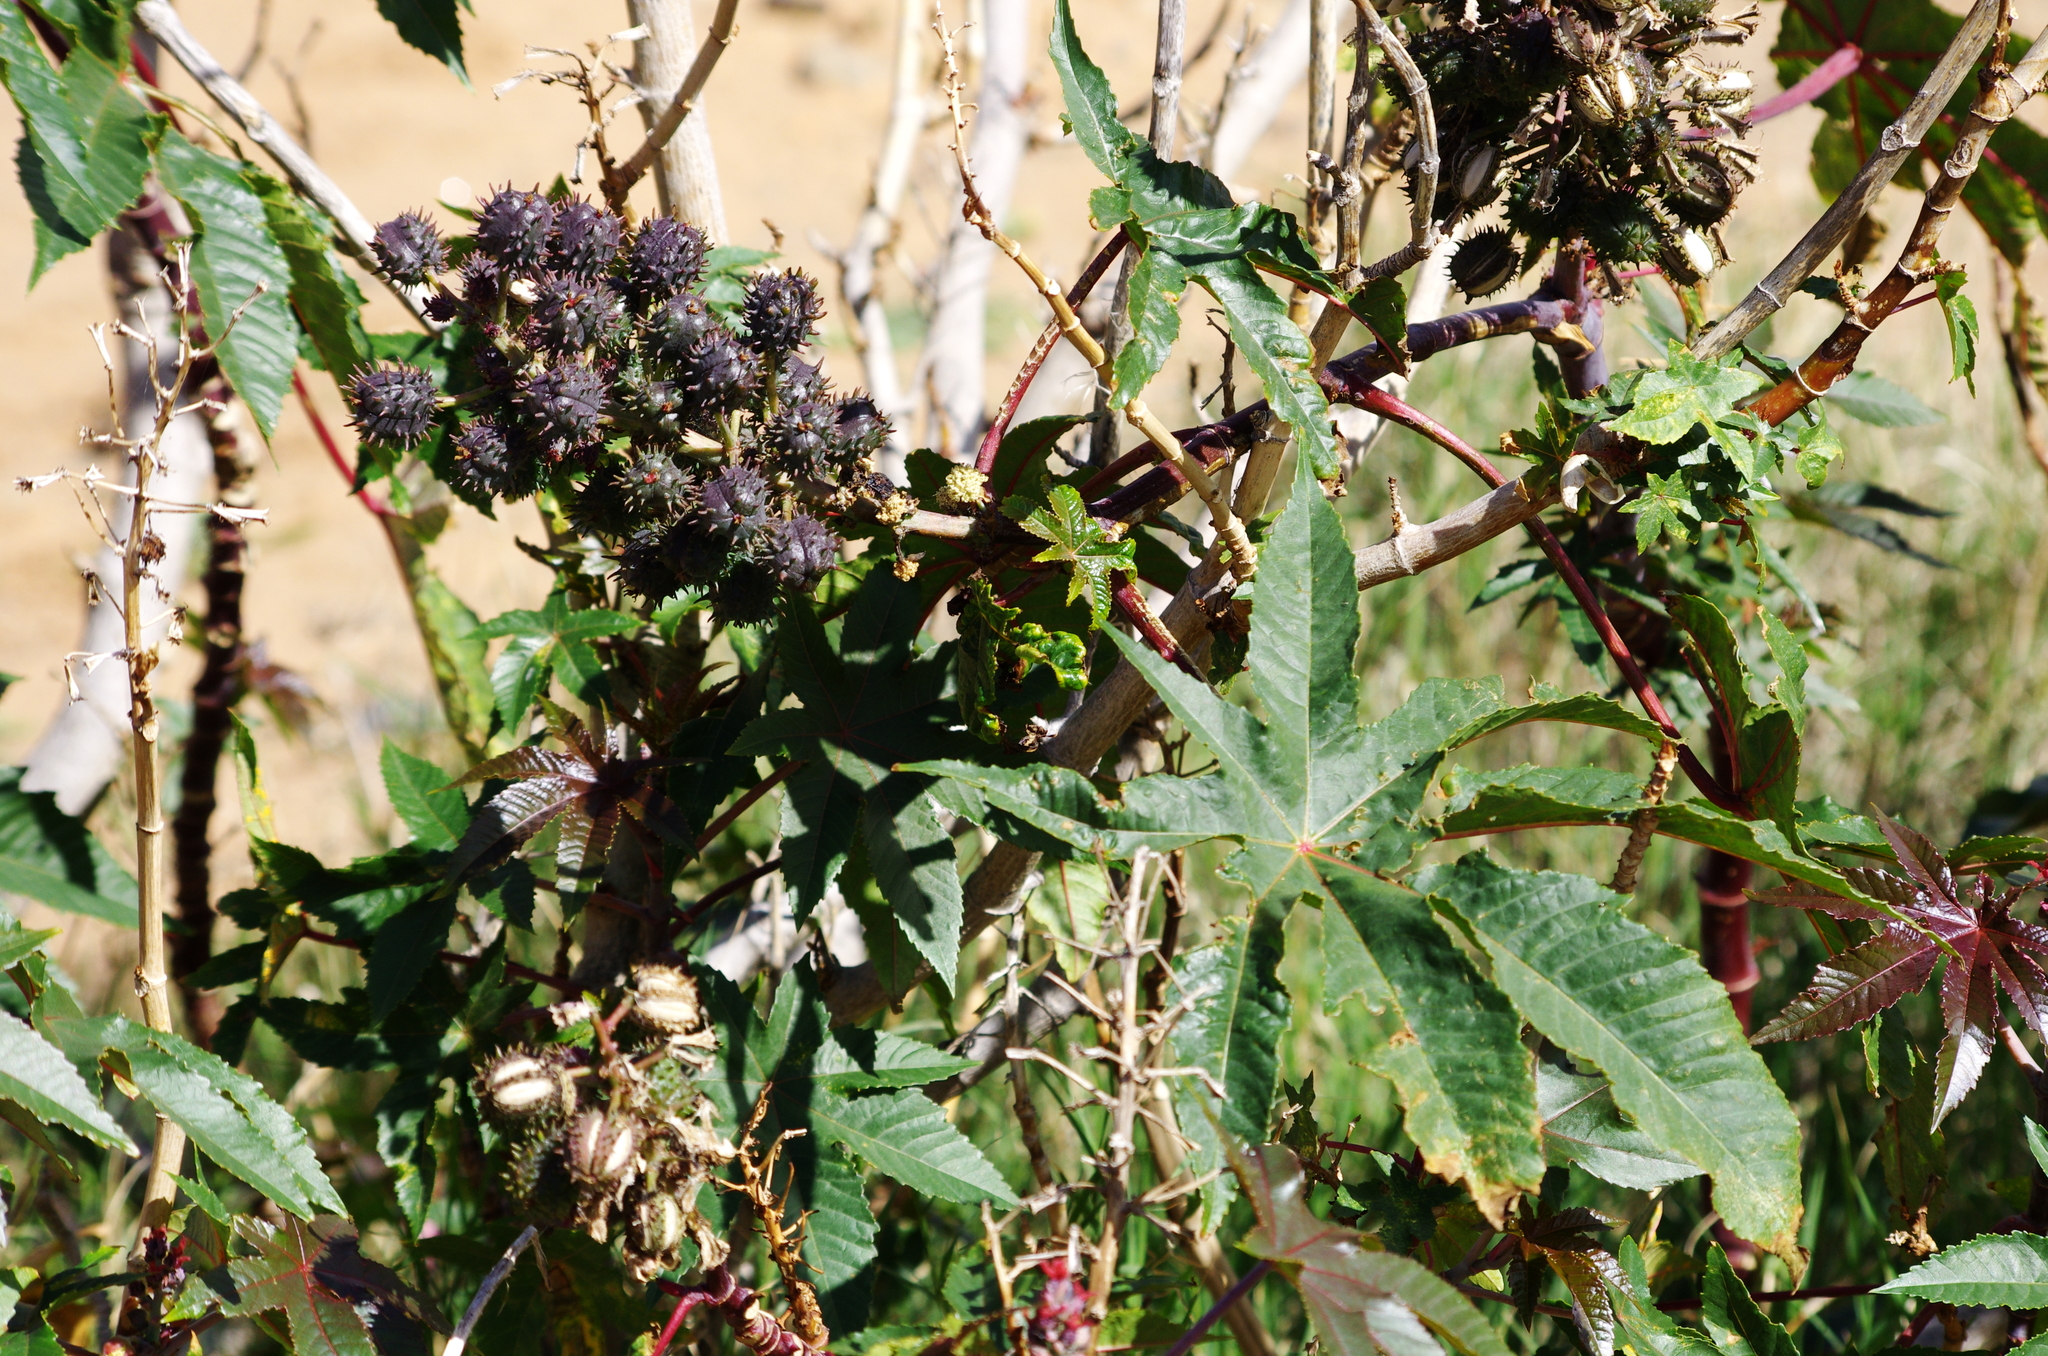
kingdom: Plantae
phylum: Tracheophyta
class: Magnoliopsida
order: Malpighiales
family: Euphorbiaceae
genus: Ricinus
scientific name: Ricinus communis
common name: Castor-oil-plant
